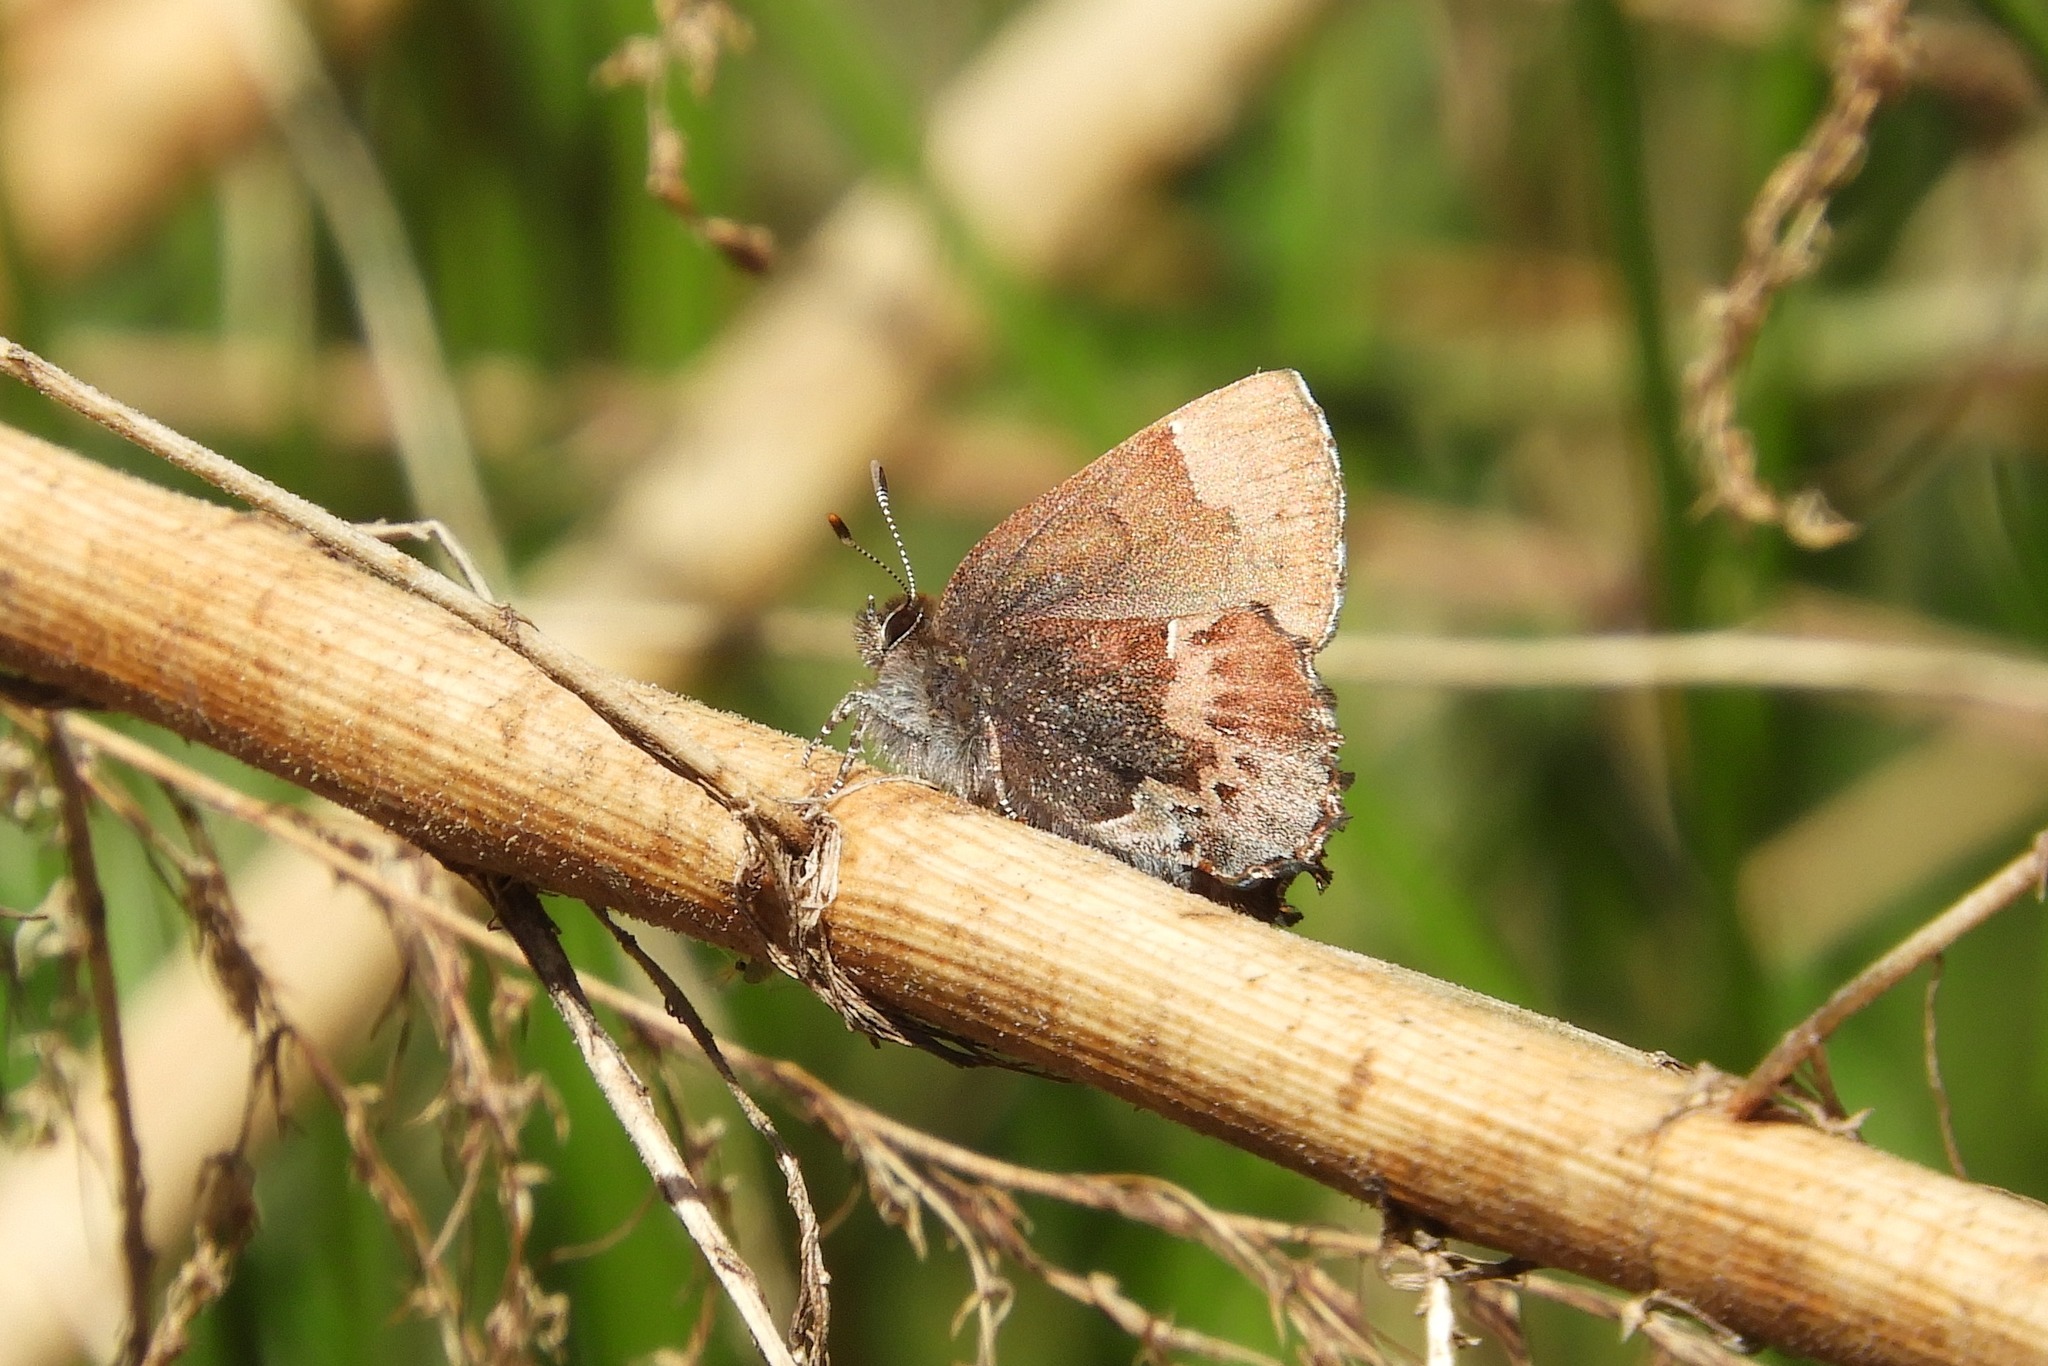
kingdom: Animalia
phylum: Arthropoda
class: Insecta
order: Lepidoptera
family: Lycaenidae
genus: Incisalia
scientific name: Incisalia henrici
